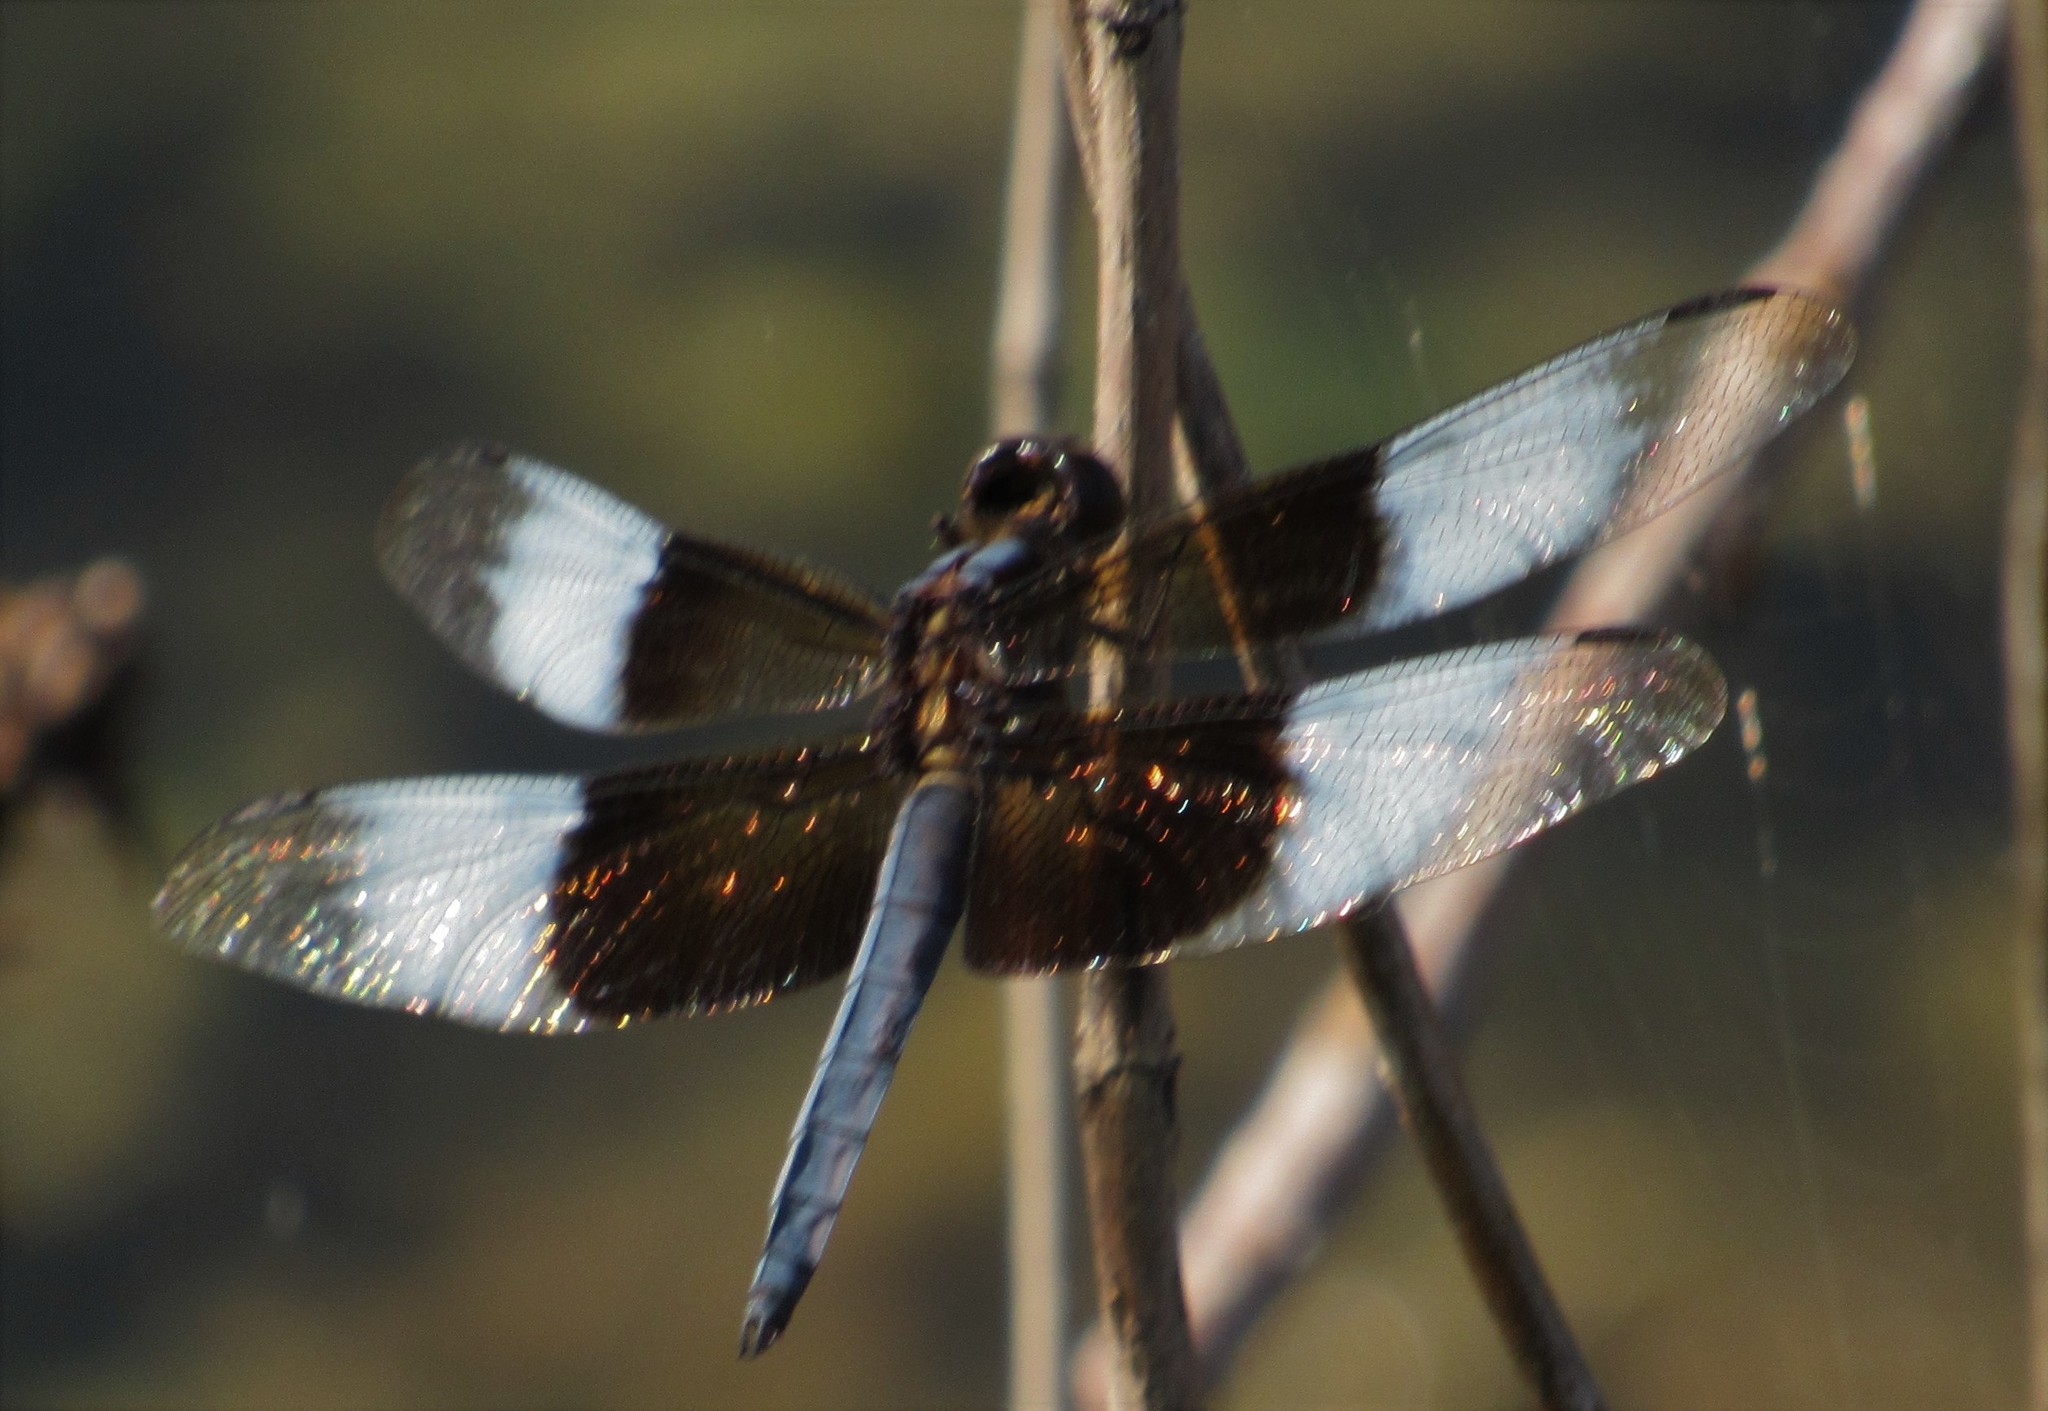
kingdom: Animalia
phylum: Arthropoda
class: Insecta
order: Odonata
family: Libellulidae
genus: Libellula
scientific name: Libellula luctuosa
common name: Widow skimmer
